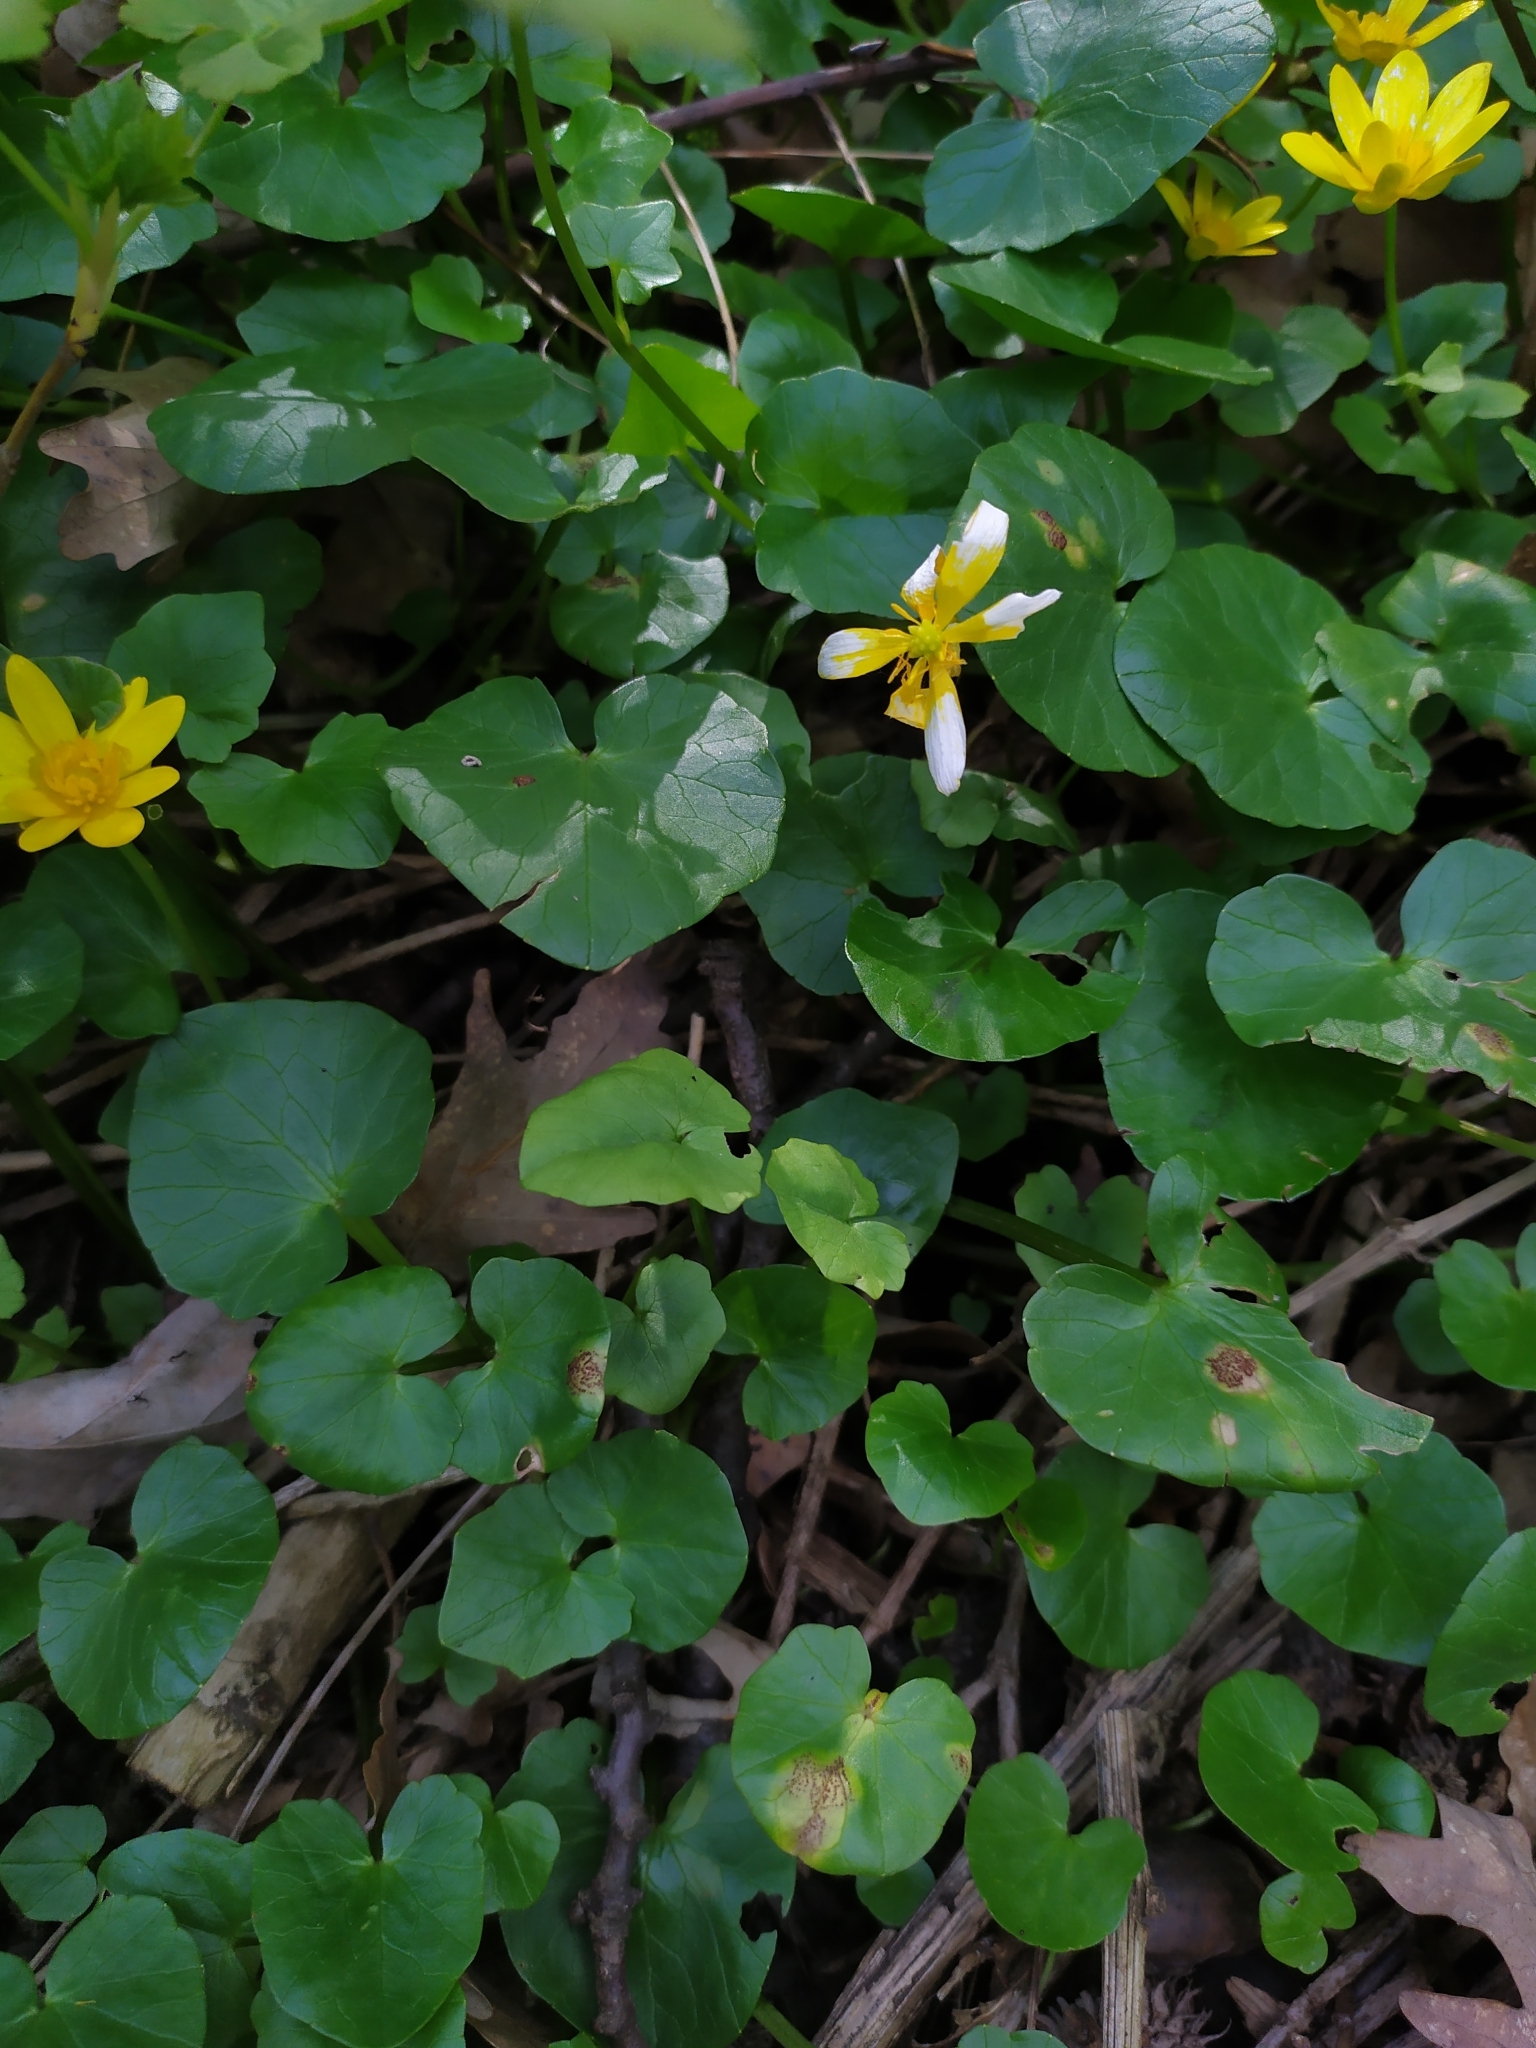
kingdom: Plantae
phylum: Tracheophyta
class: Magnoliopsida
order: Ranunculales
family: Ranunculaceae
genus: Ficaria
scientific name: Ficaria verna
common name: Lesser celandine
